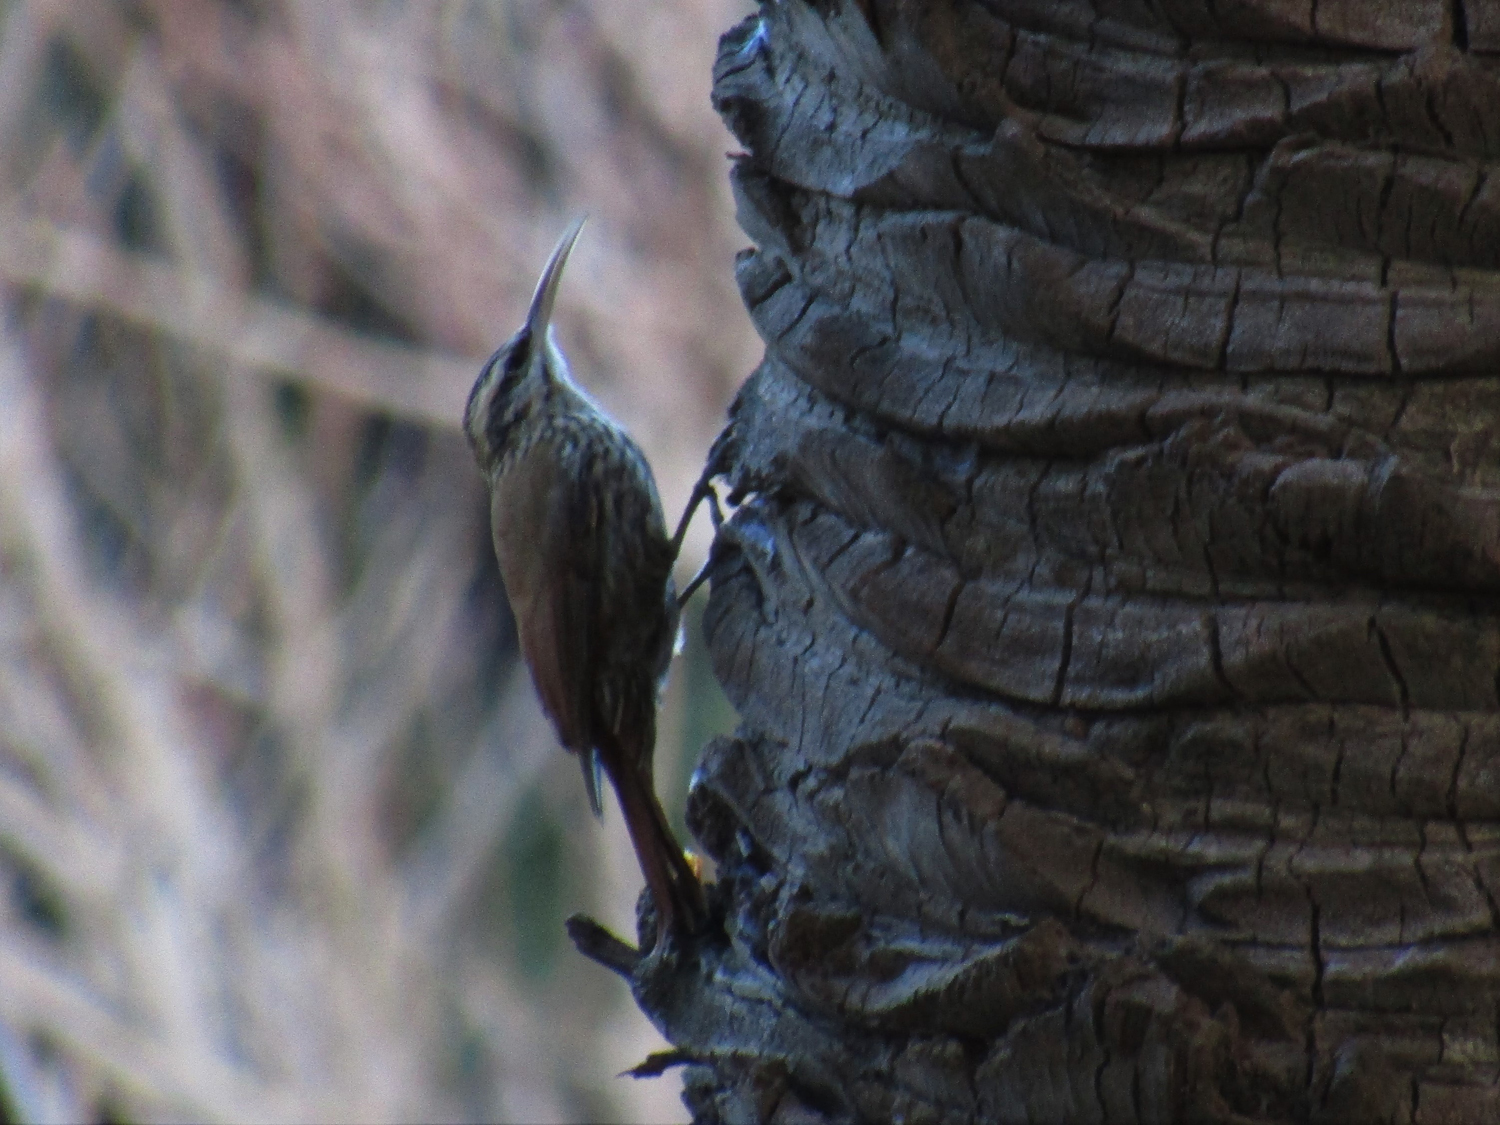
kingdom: Animalia
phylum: Chordata
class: Aves
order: Passeriformes
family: Furnariidae
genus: Lepidocolaptes
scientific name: Lepidocolaptes angustirostris
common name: Narrow-billed woodcreeper
